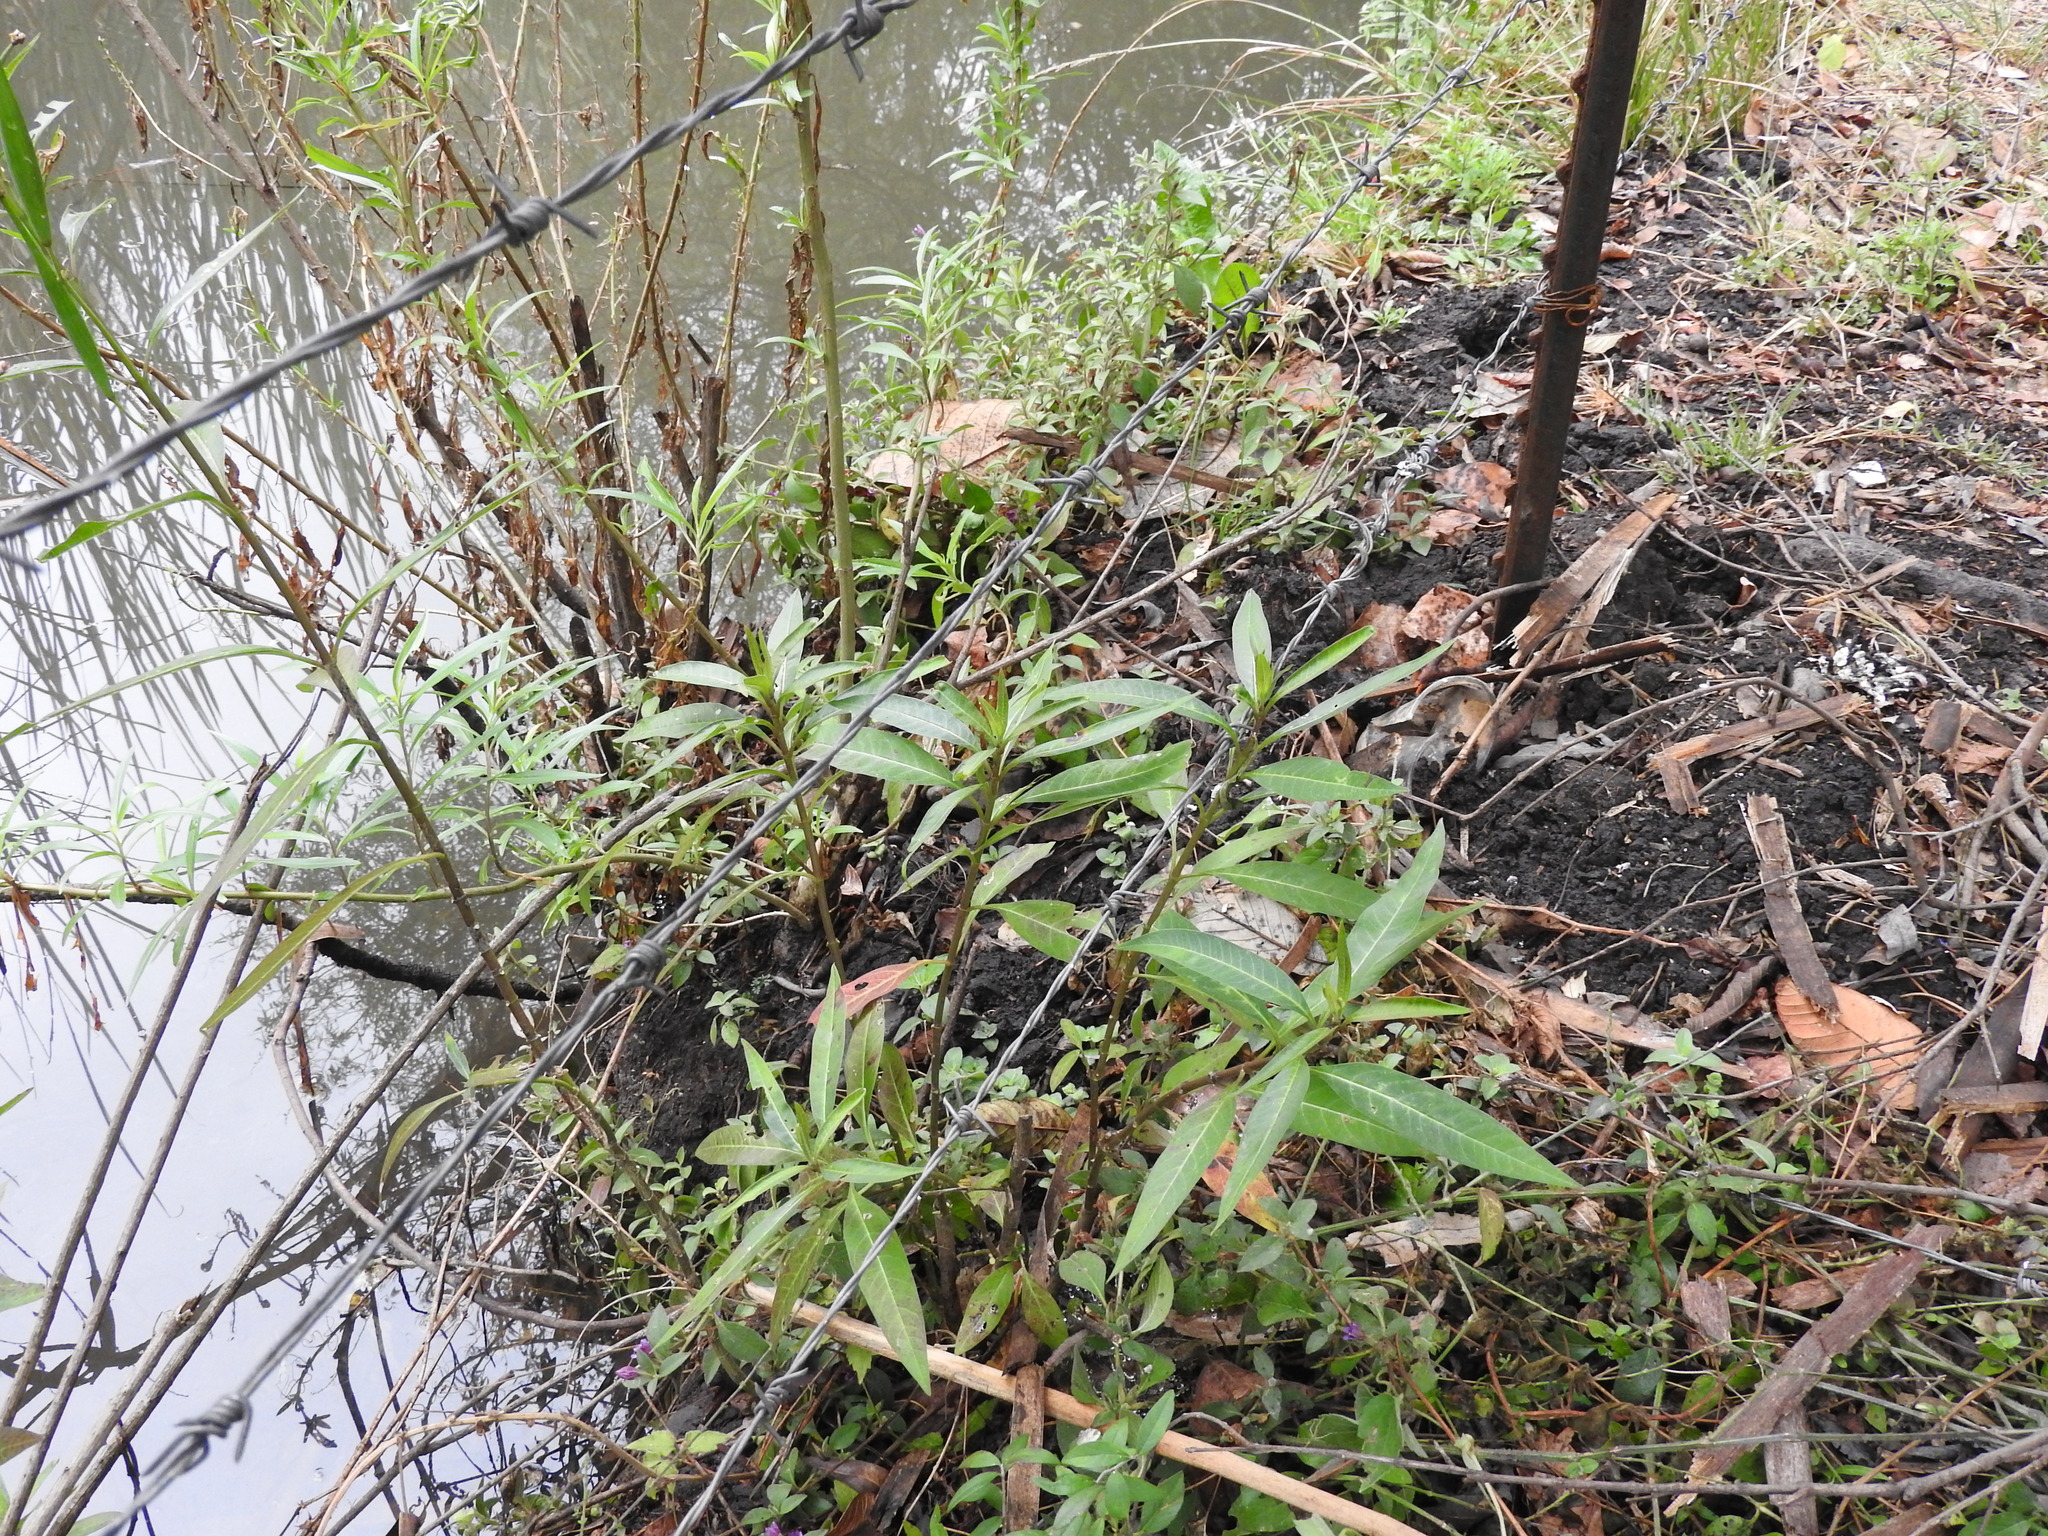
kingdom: Plantae
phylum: Tracheophyta
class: Magnoliopsida
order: Gentianales
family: Apocynaceae
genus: Asclepias
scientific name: Asclepias curassavica
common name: Bloodflower
